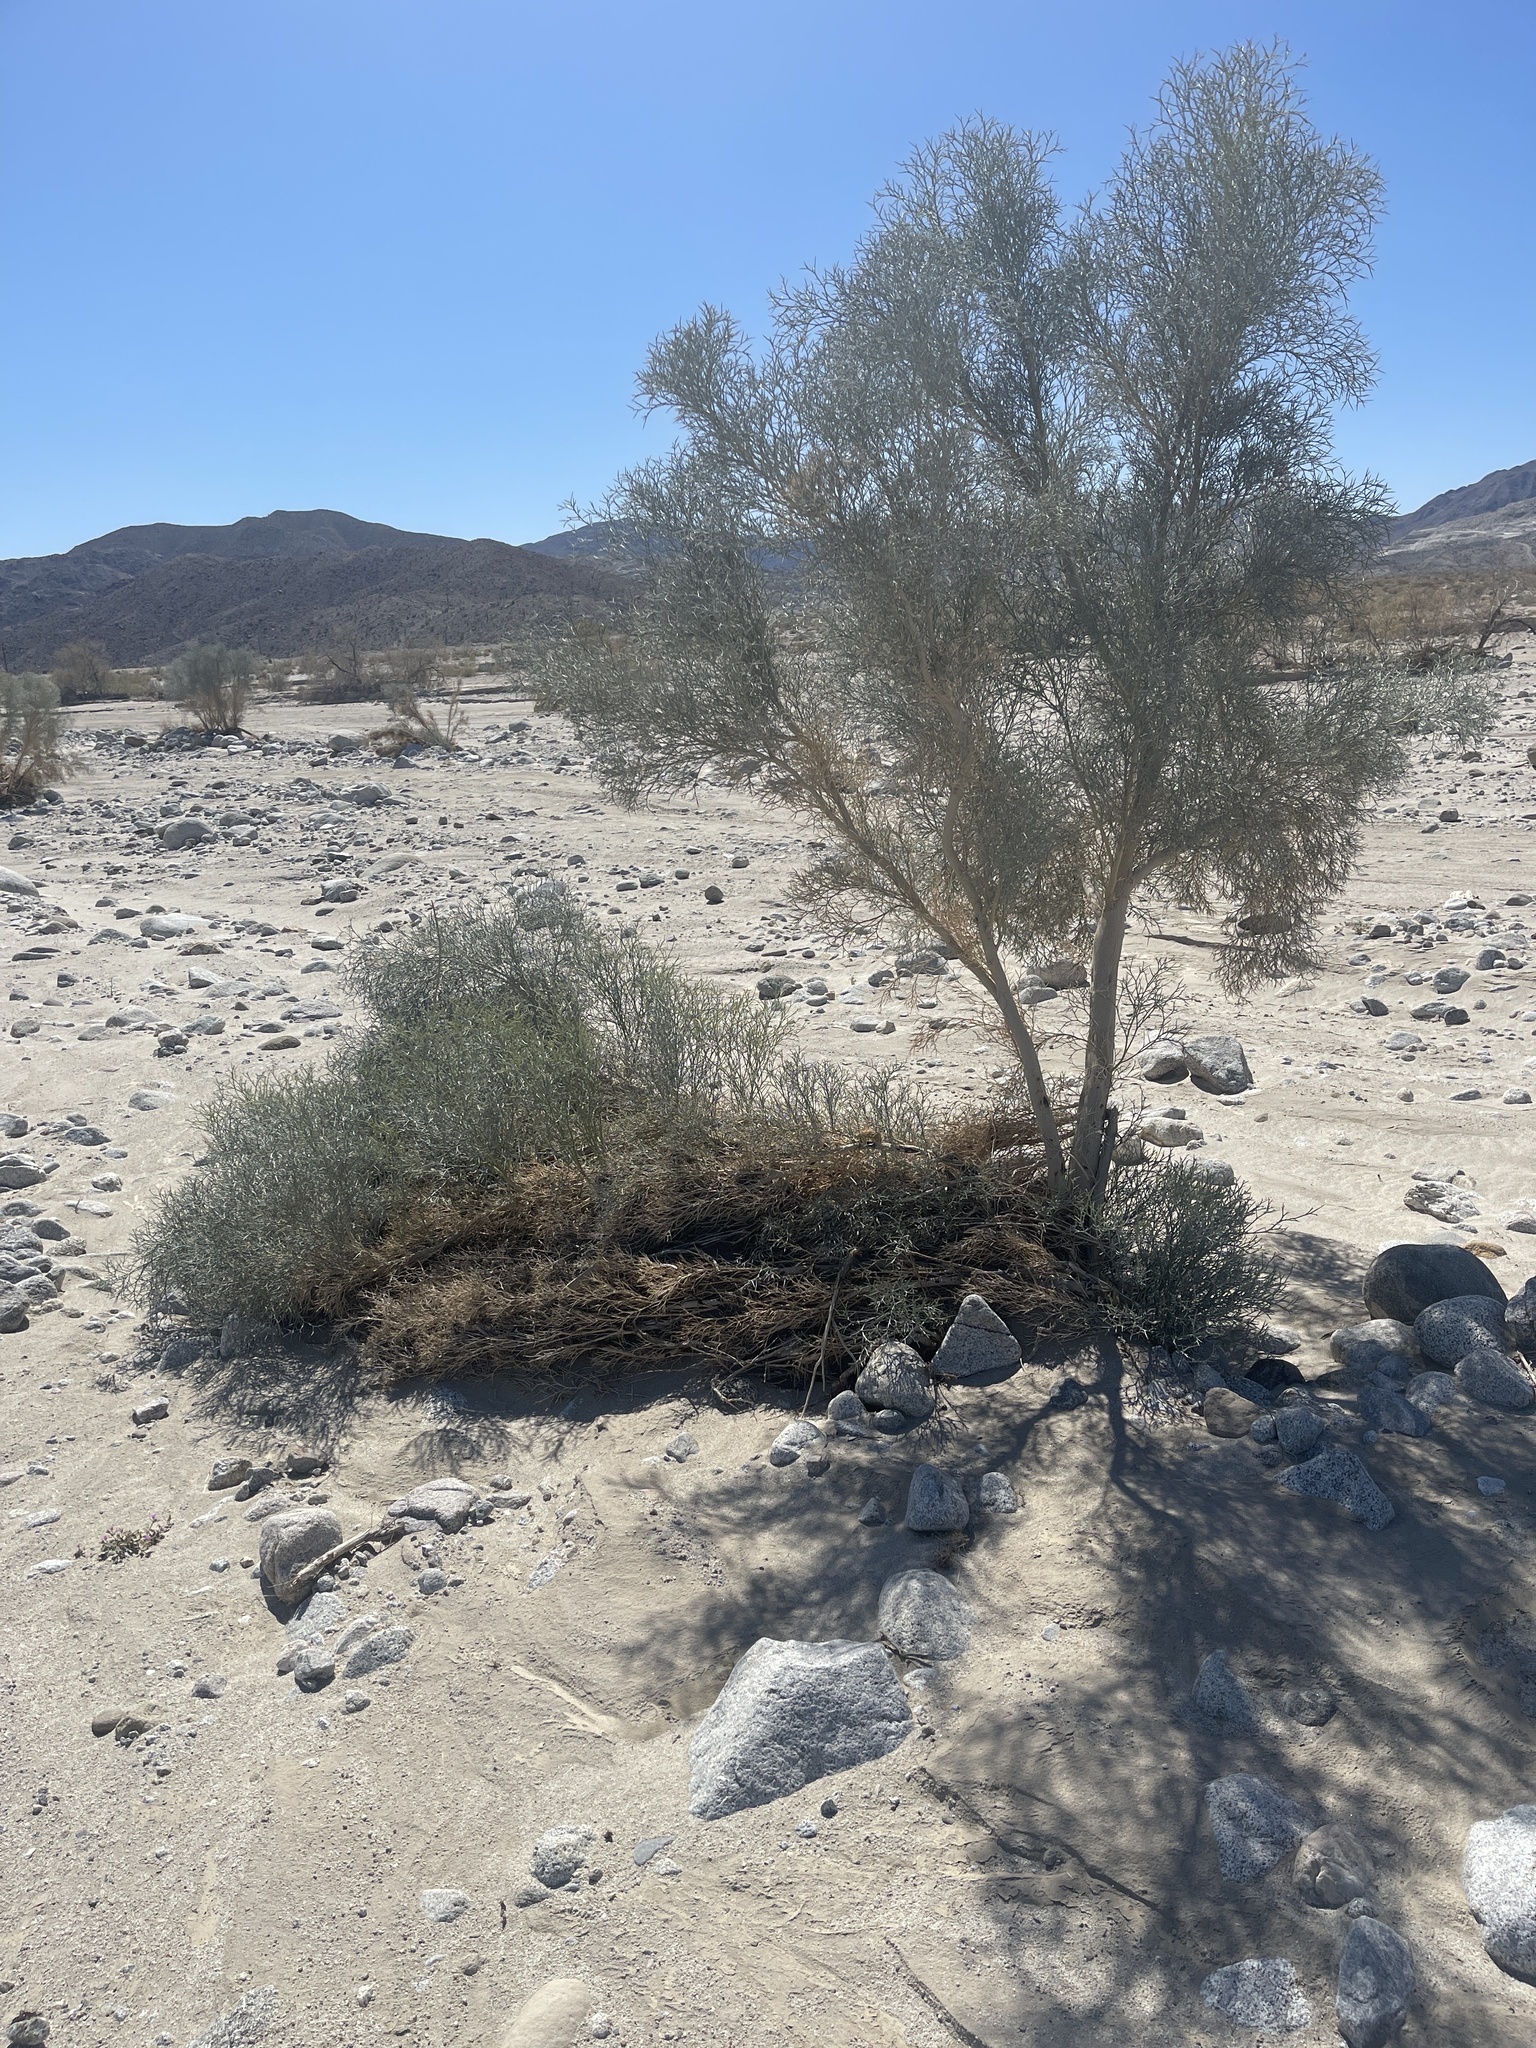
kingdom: Plantae
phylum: Tracheophyta
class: Magnoliopsida
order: Fabales
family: Fabaceae
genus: Psorothamnus
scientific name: Psorothamnus spinosus
